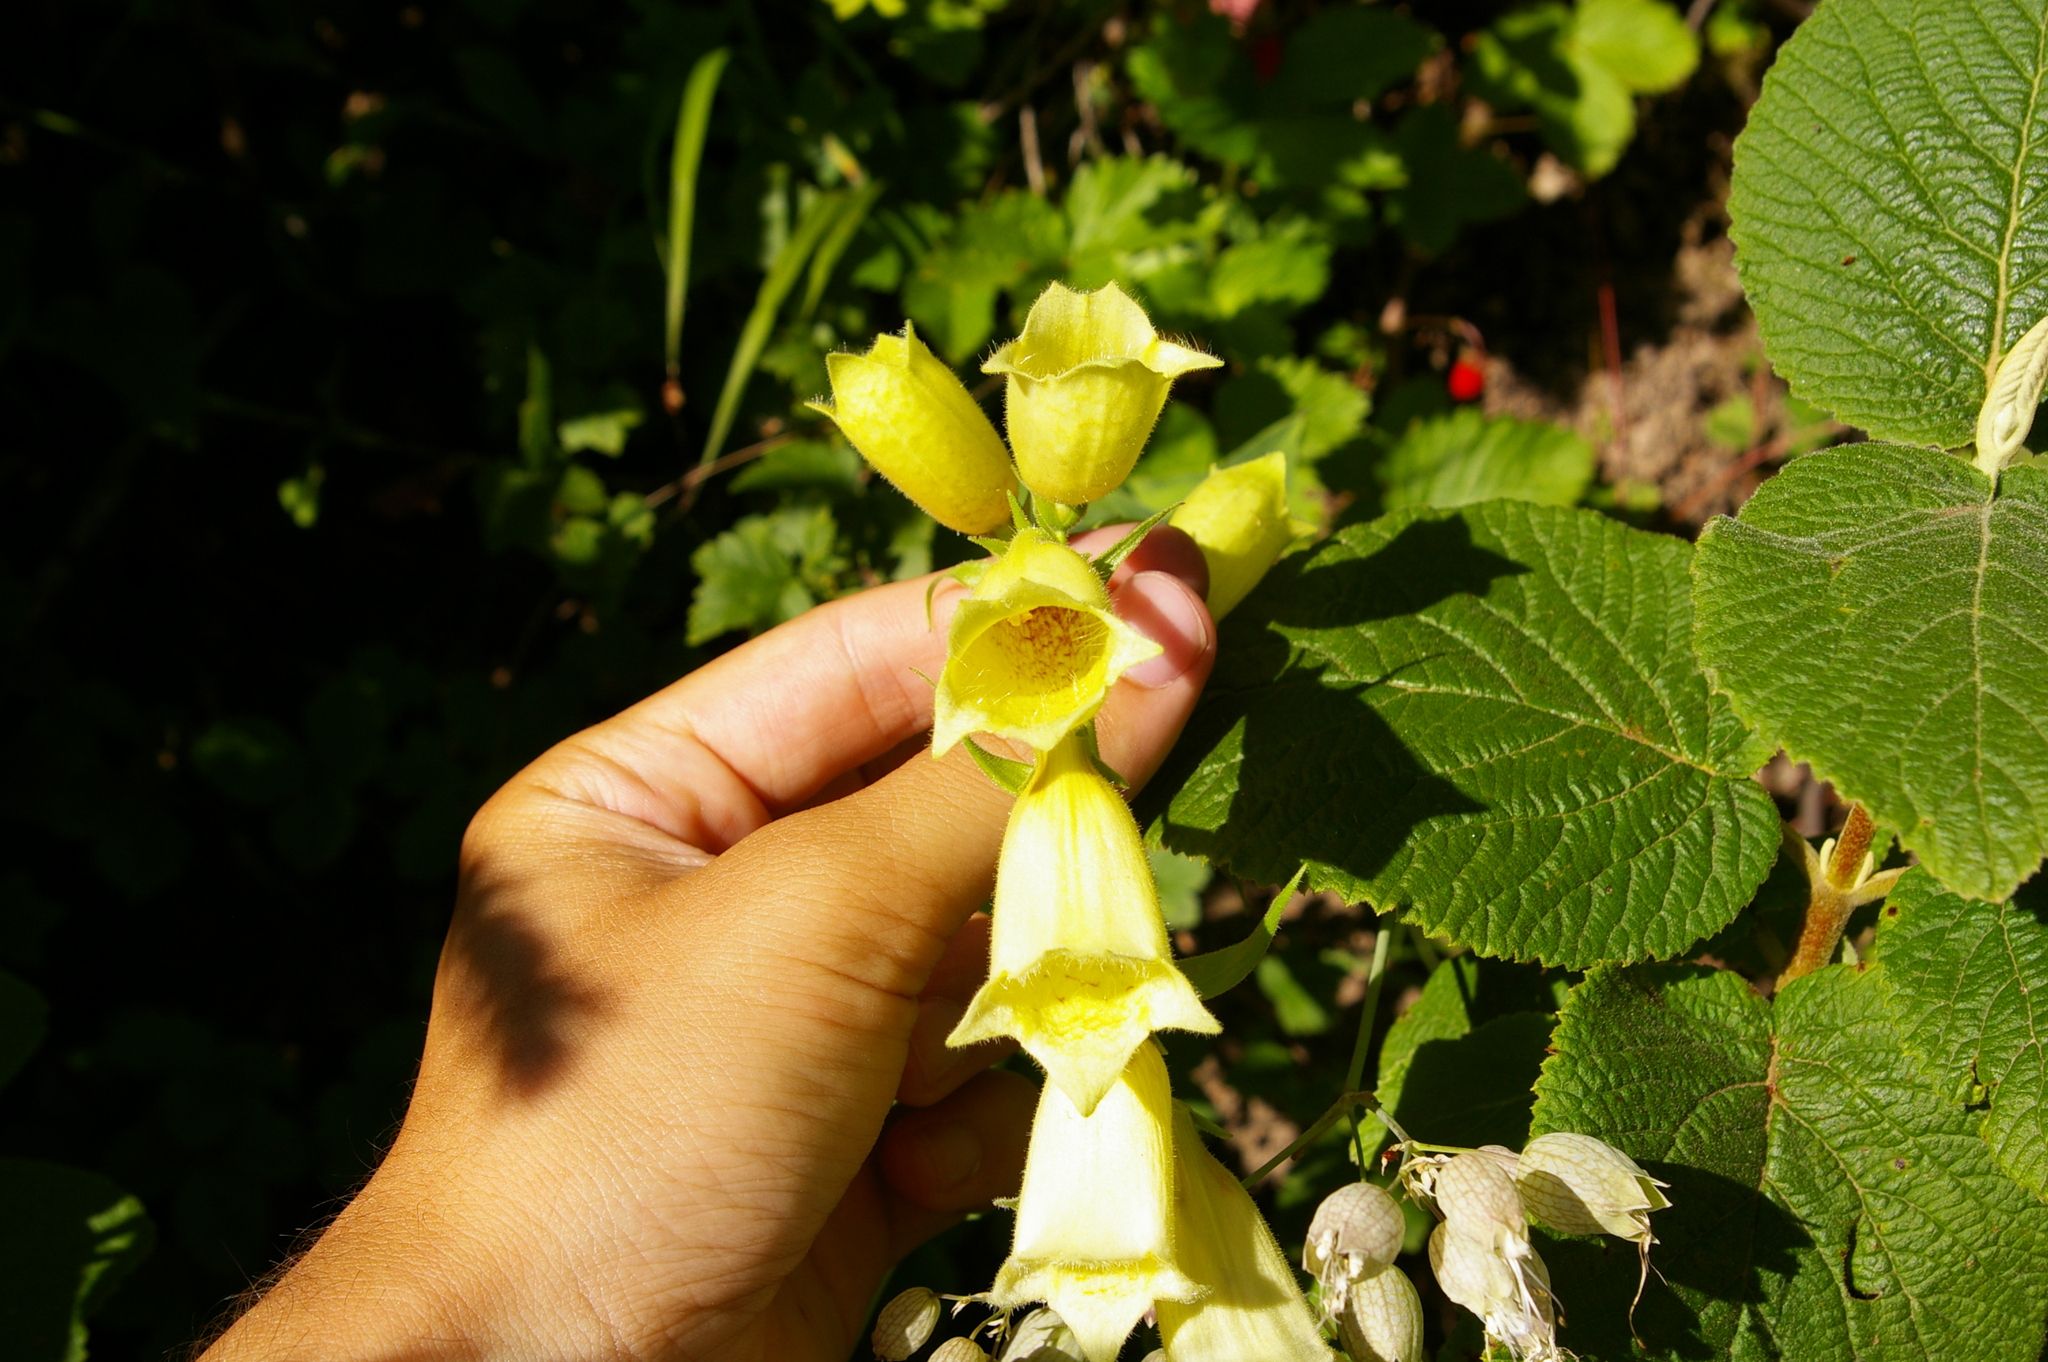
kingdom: Plantae
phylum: Tracheophyta
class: Magnoliopsida
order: Lamiales
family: Plantaginaceae
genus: Digitalis
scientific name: Digitalis grandiflora
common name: Yellow foxglove
